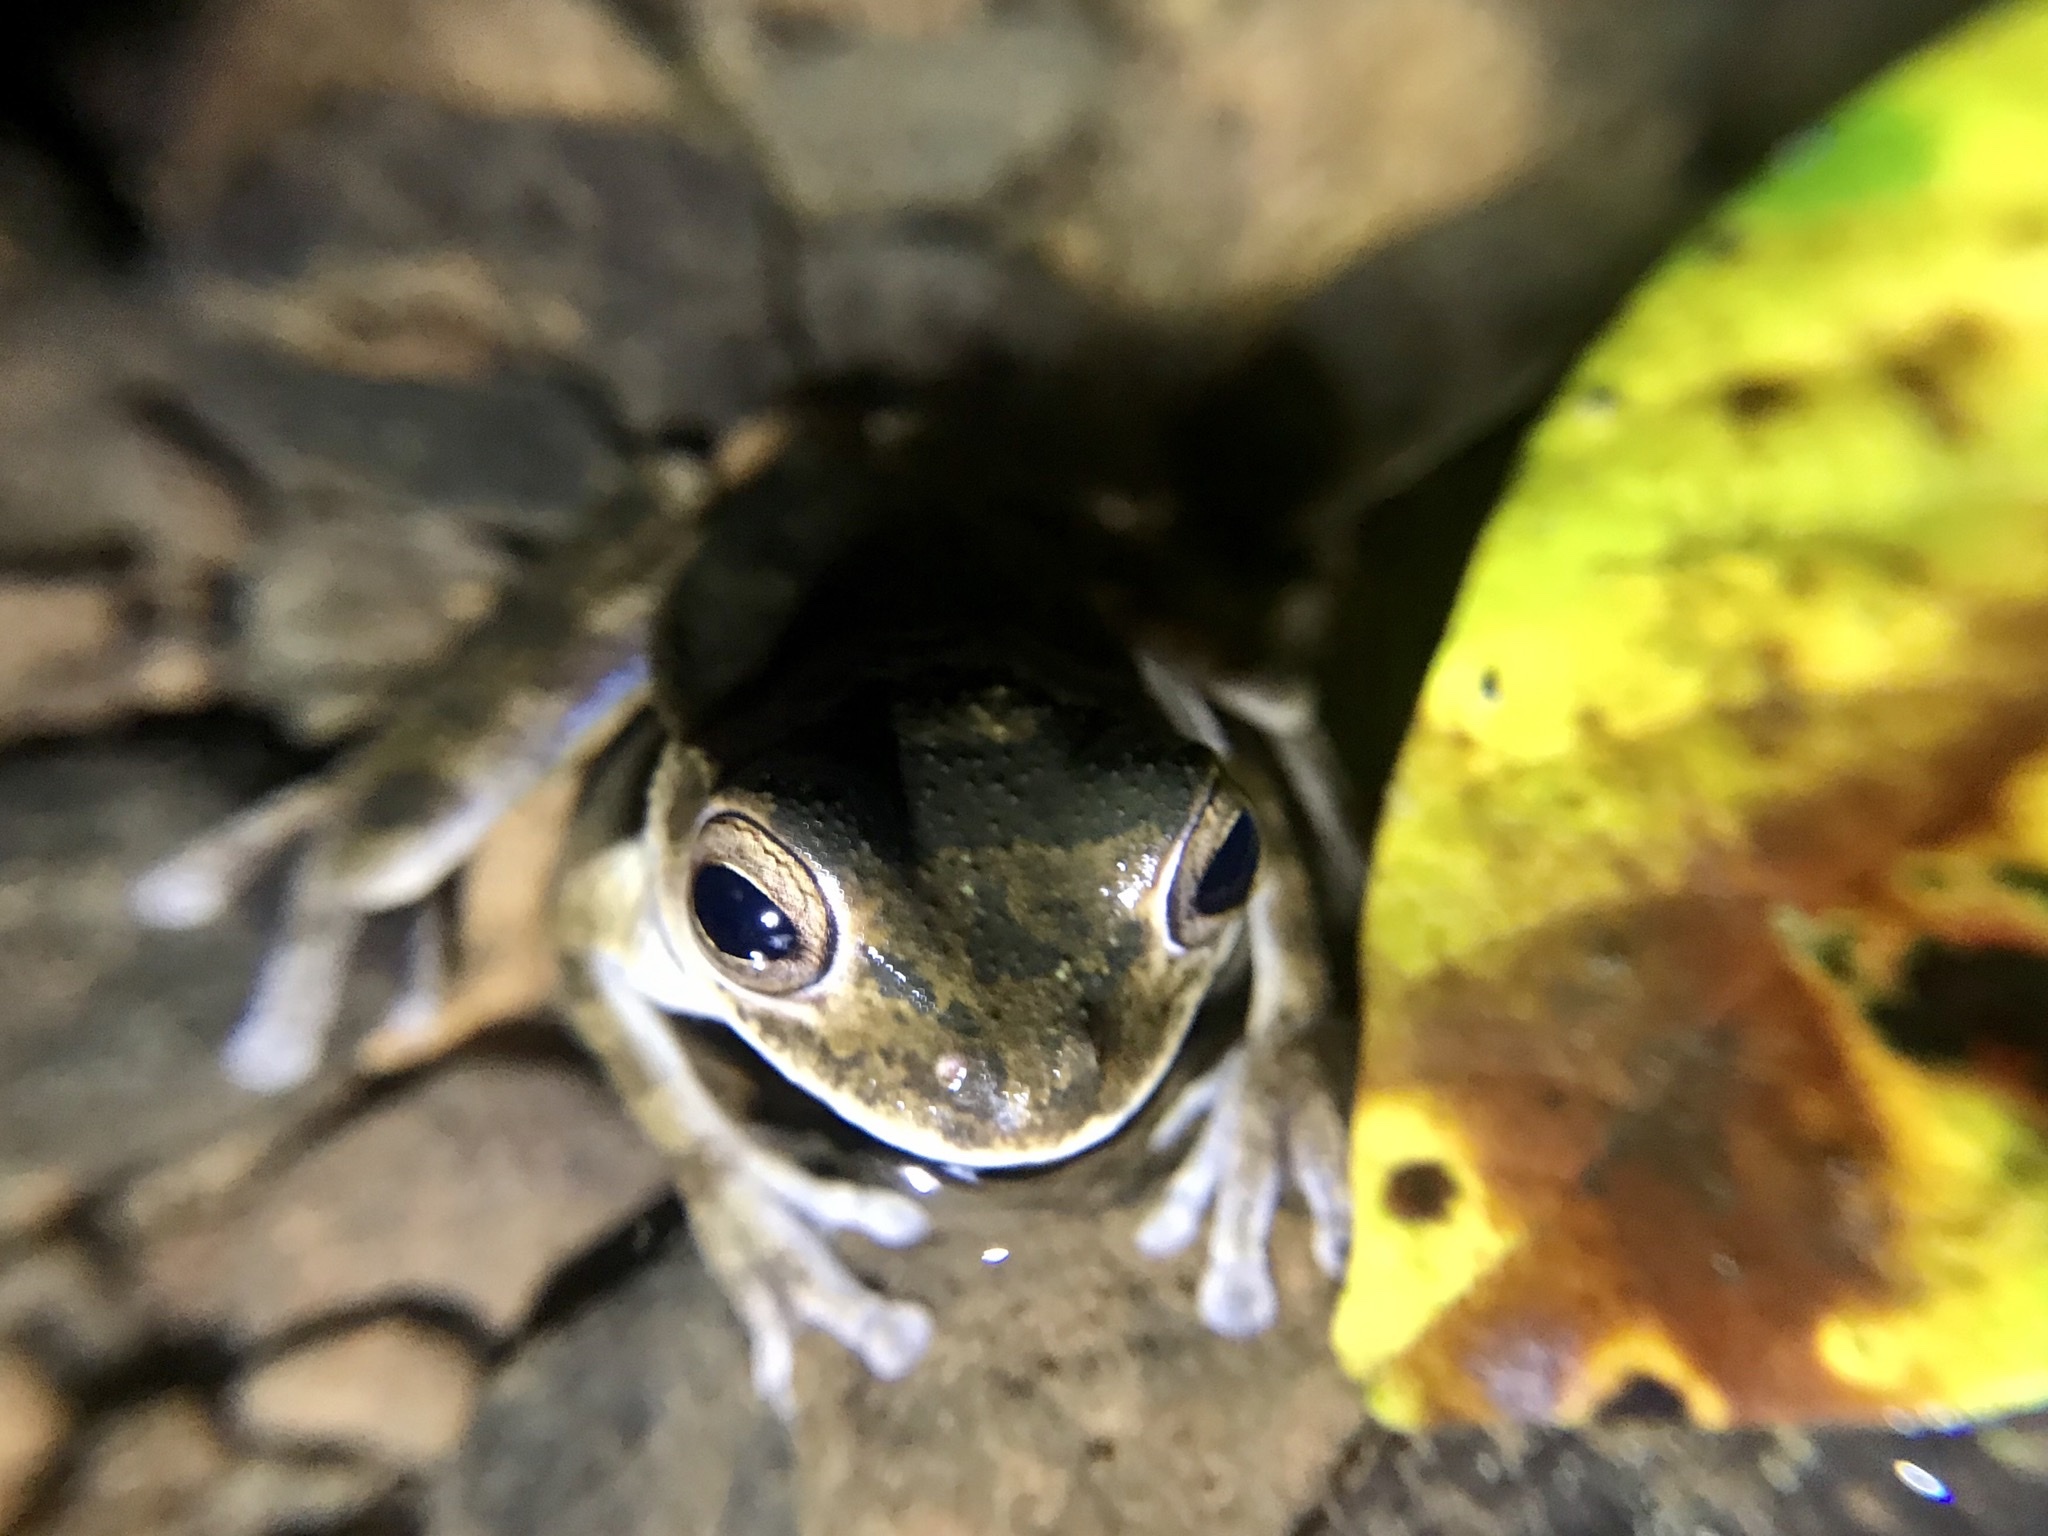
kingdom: Animalia
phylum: Chordata
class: Amphibia
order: Anura
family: Hylidae
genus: Smilisca
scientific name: Smilisca sila
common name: Panama cross-banded treefrog
